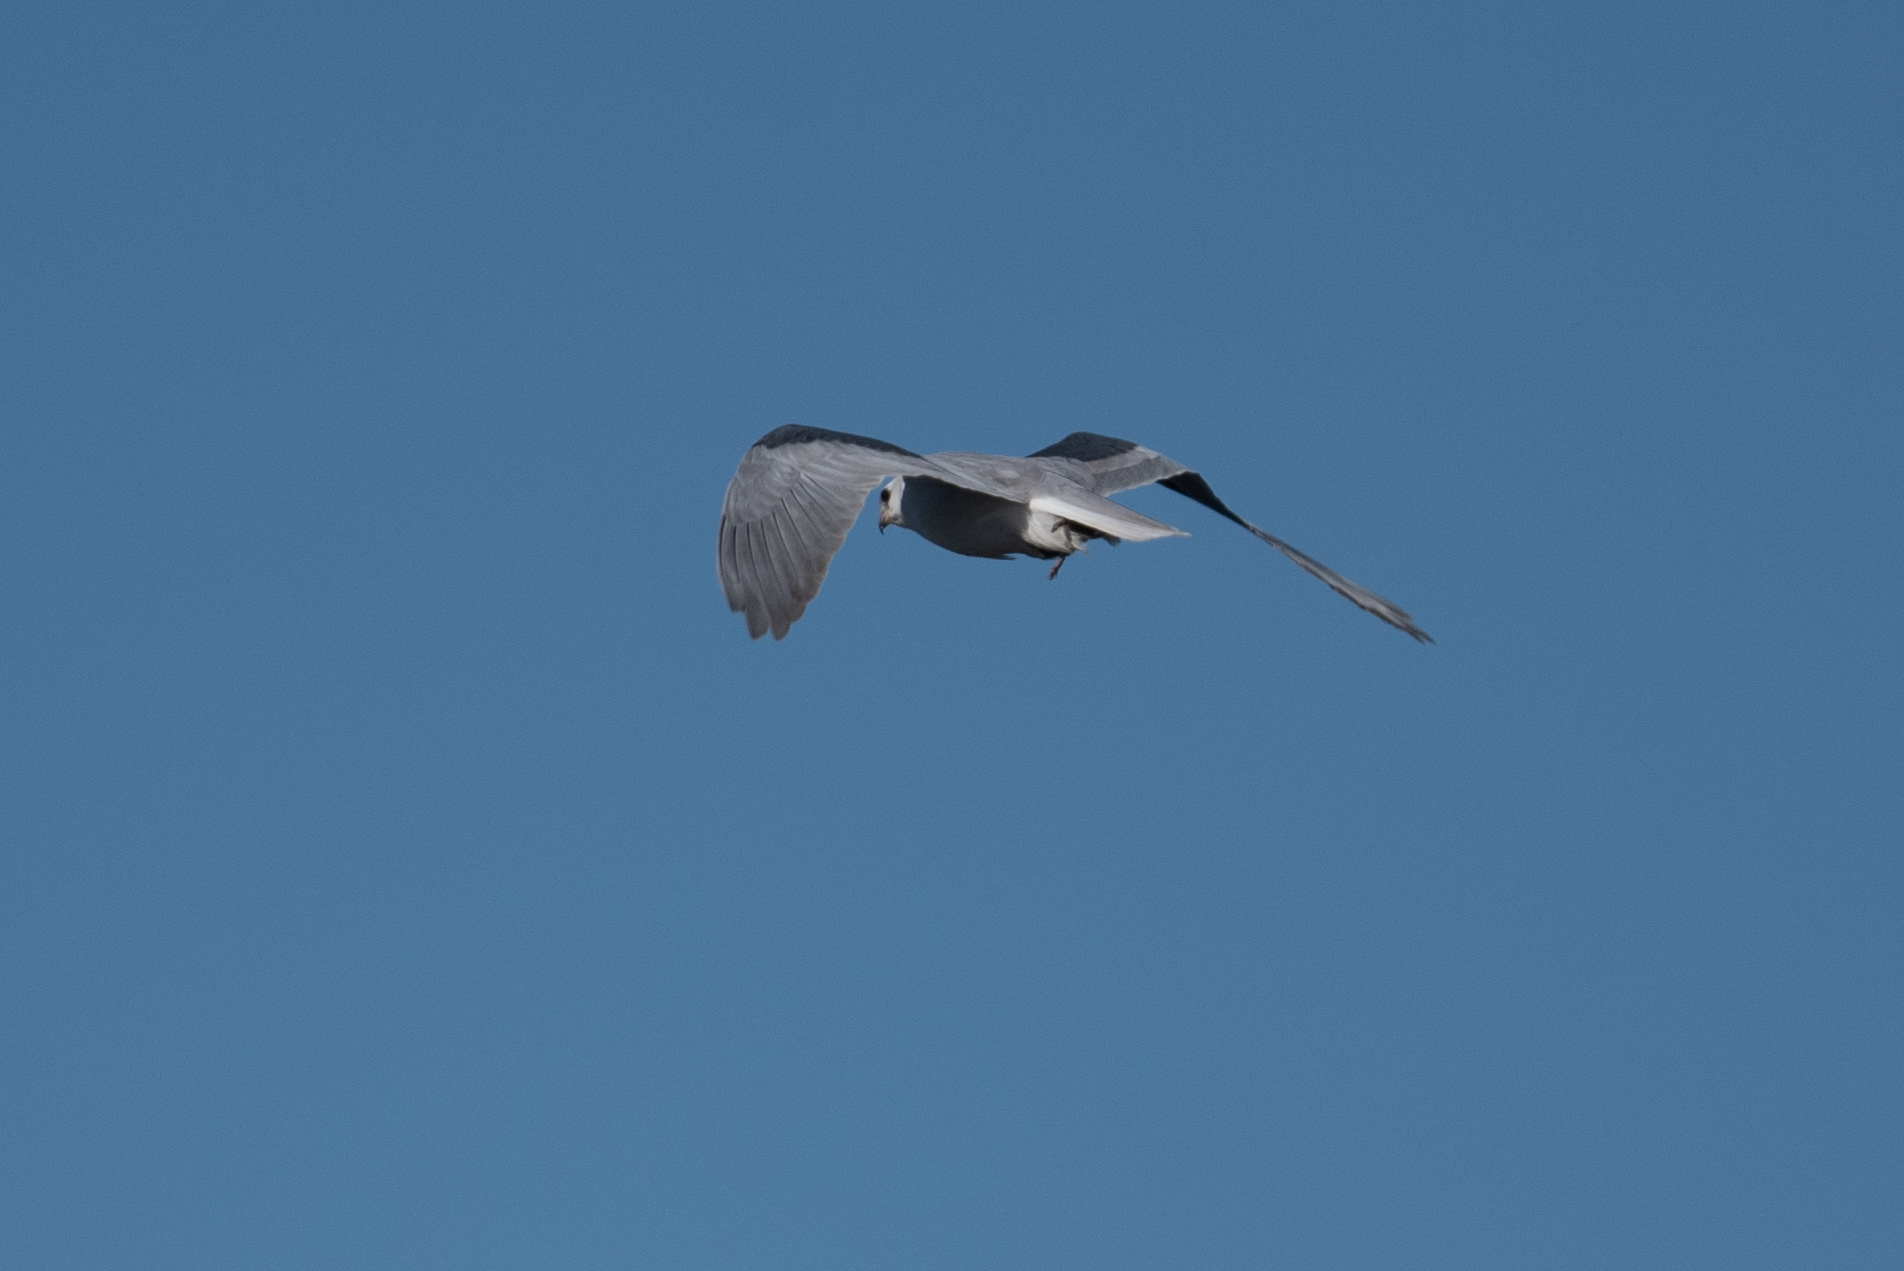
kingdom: Animalia
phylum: Chordata
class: Aves
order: Accipitriformes
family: Accipitridae
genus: Elanus
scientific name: Elanus leucurus
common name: White-tailed kite
